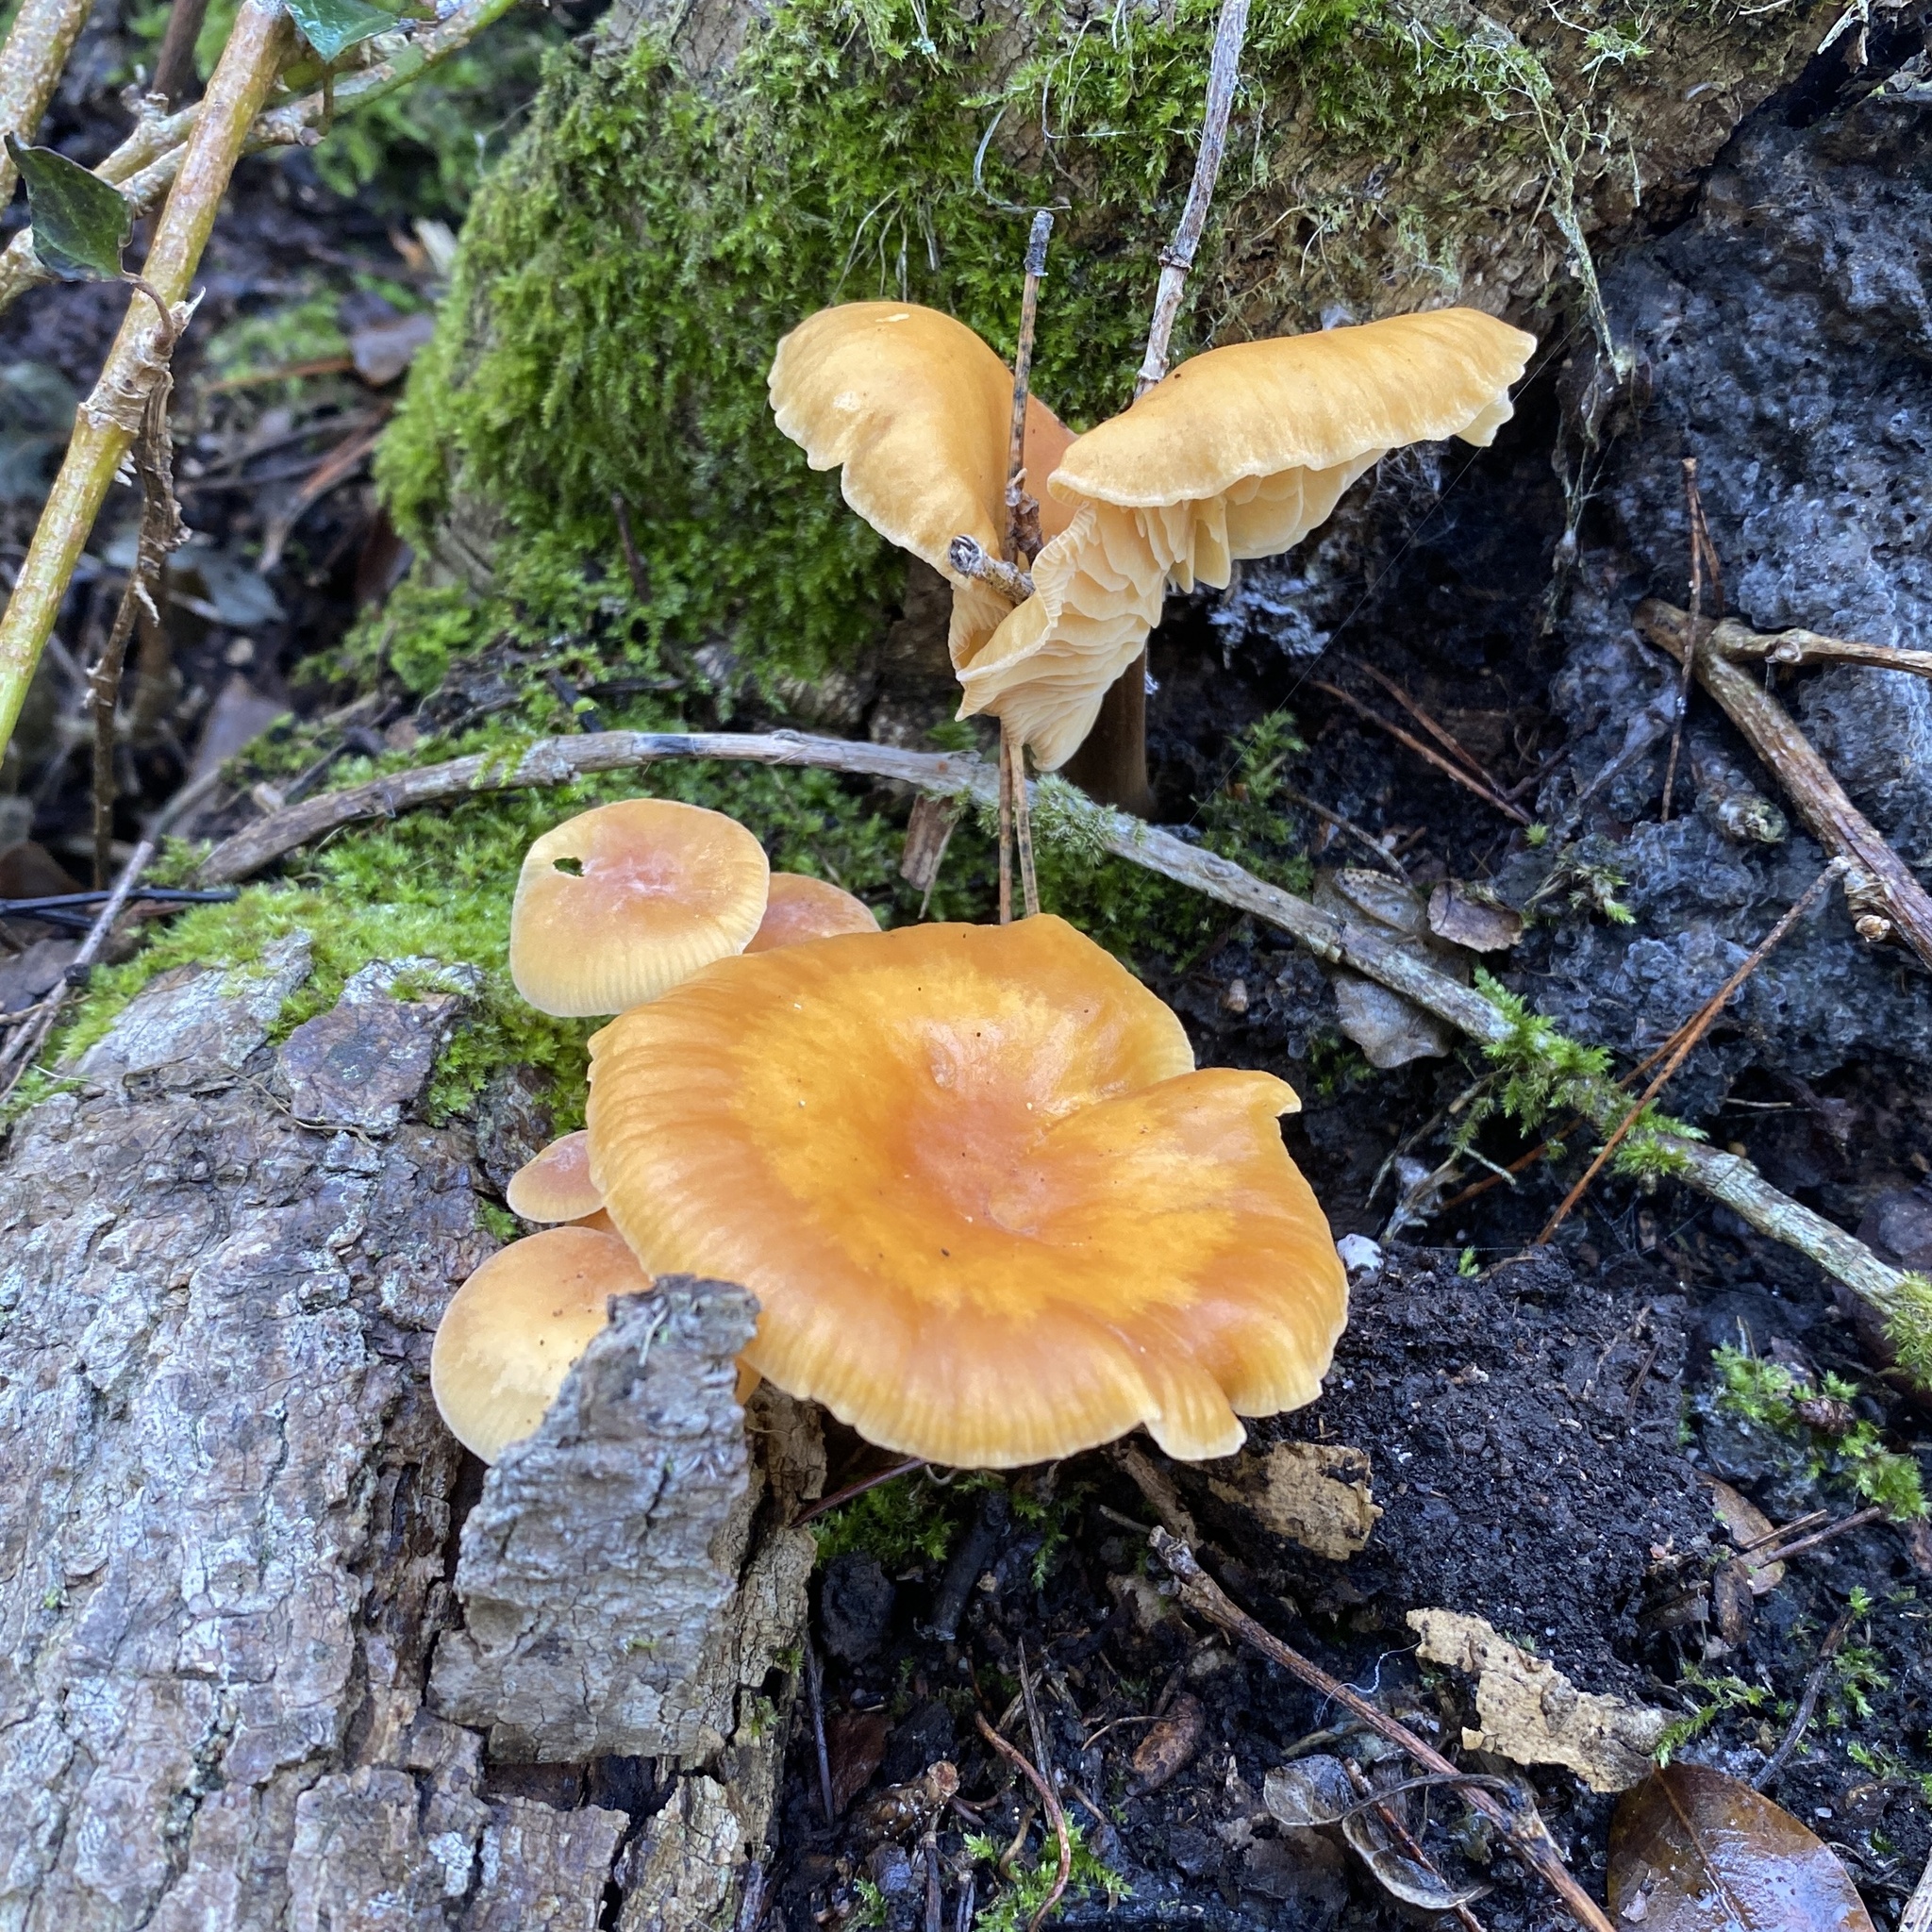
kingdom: Fungi
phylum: Basidiomycota
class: Agaricomycetes
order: Agaricales
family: Physalacriaceae
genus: Flammulina
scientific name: Flammulina
